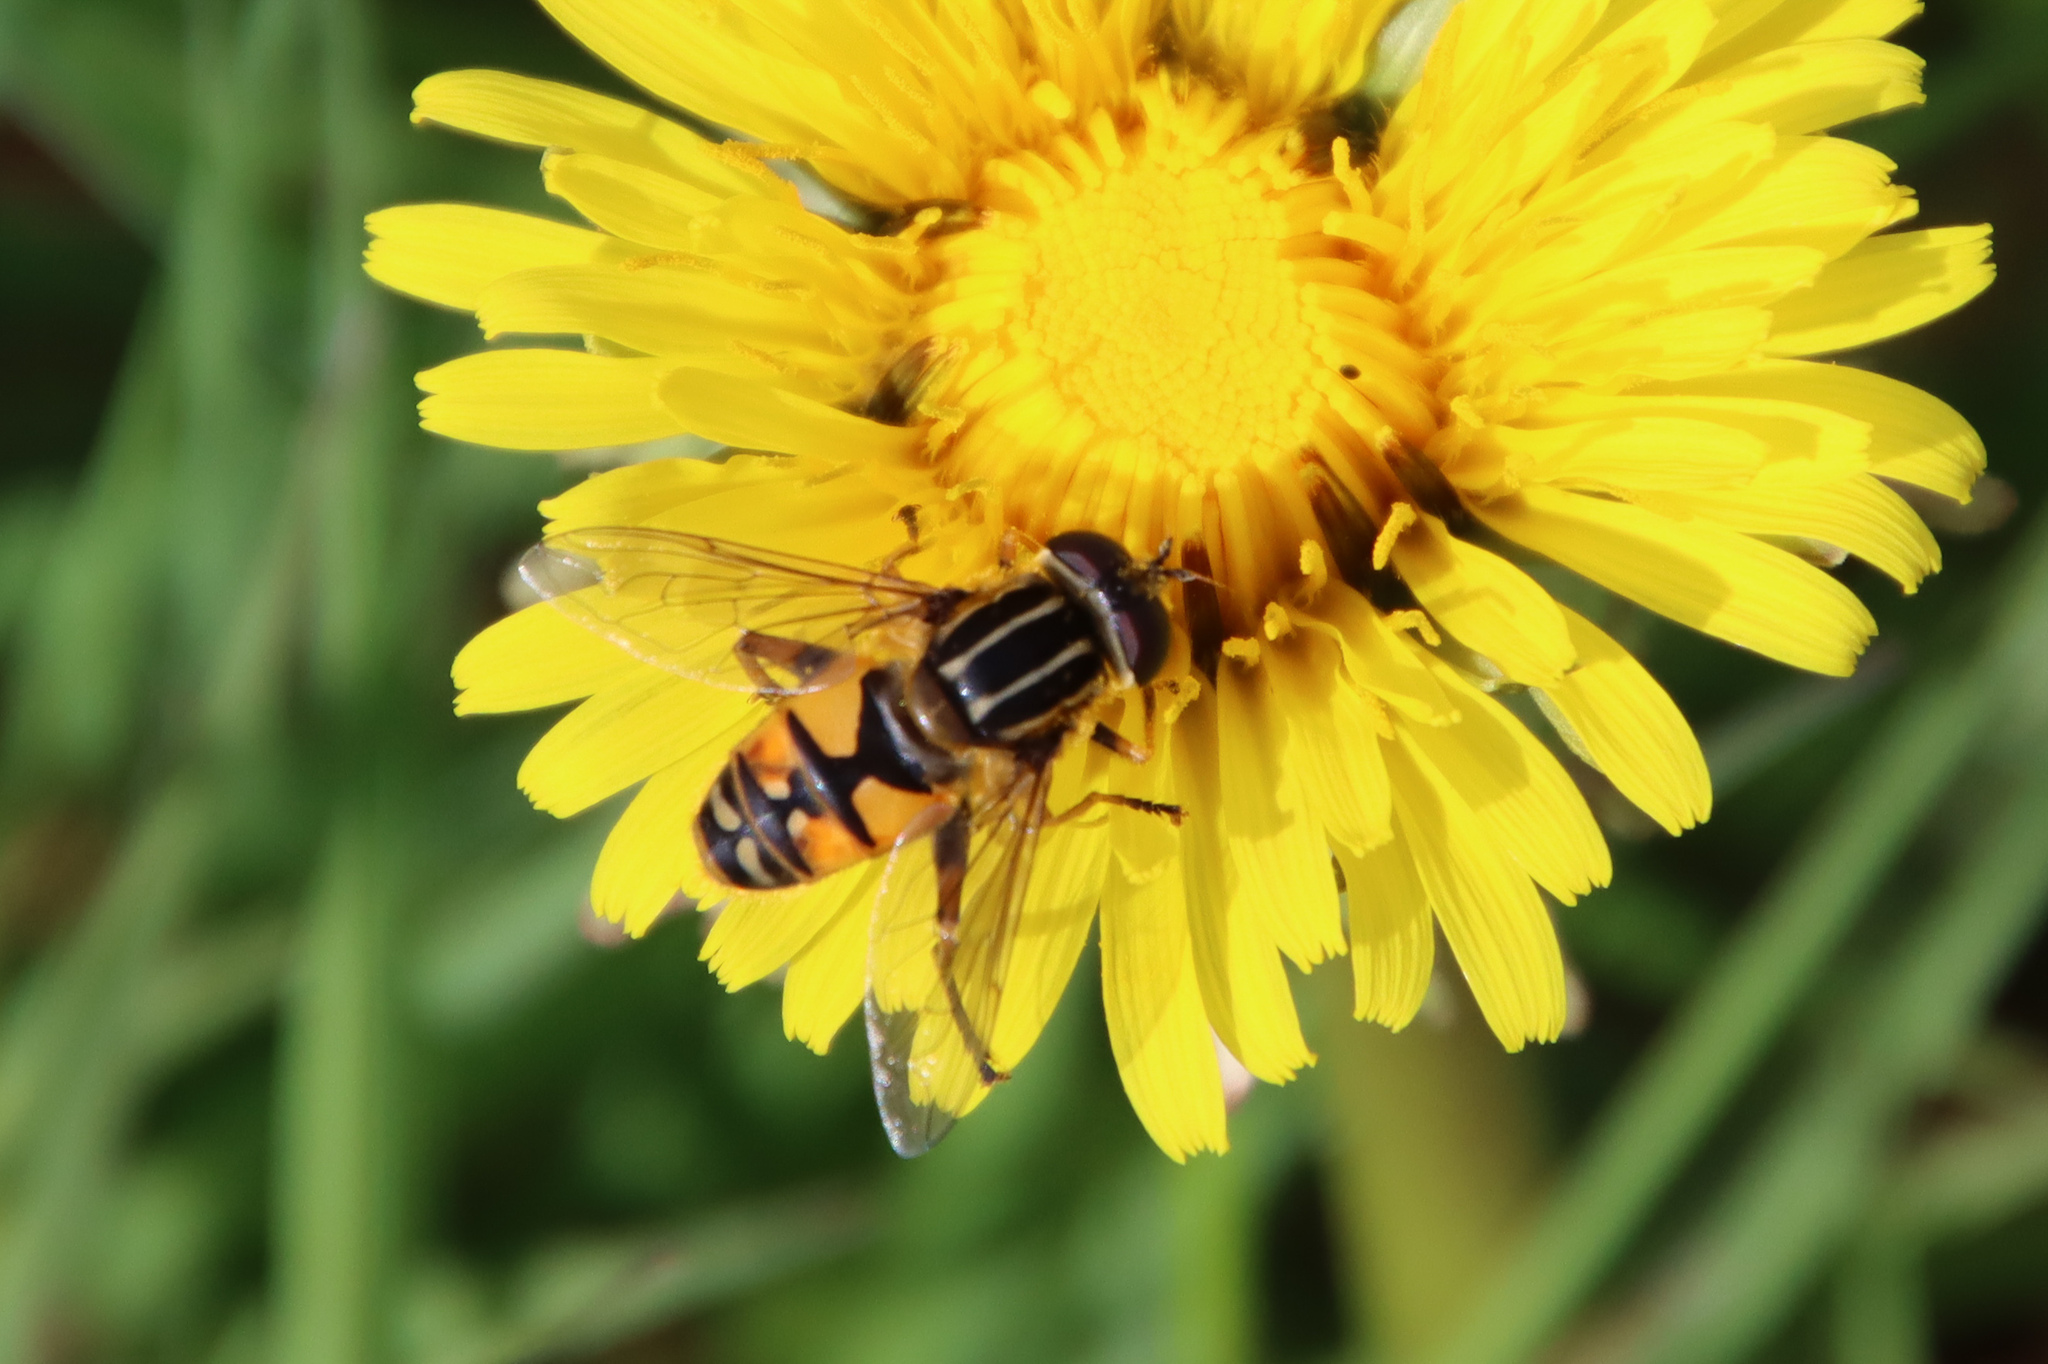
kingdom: Animalia
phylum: Arthropoda
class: Insecta
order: Diptera
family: Syrphidae
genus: Helophilus
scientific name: Helophilus pendulus
